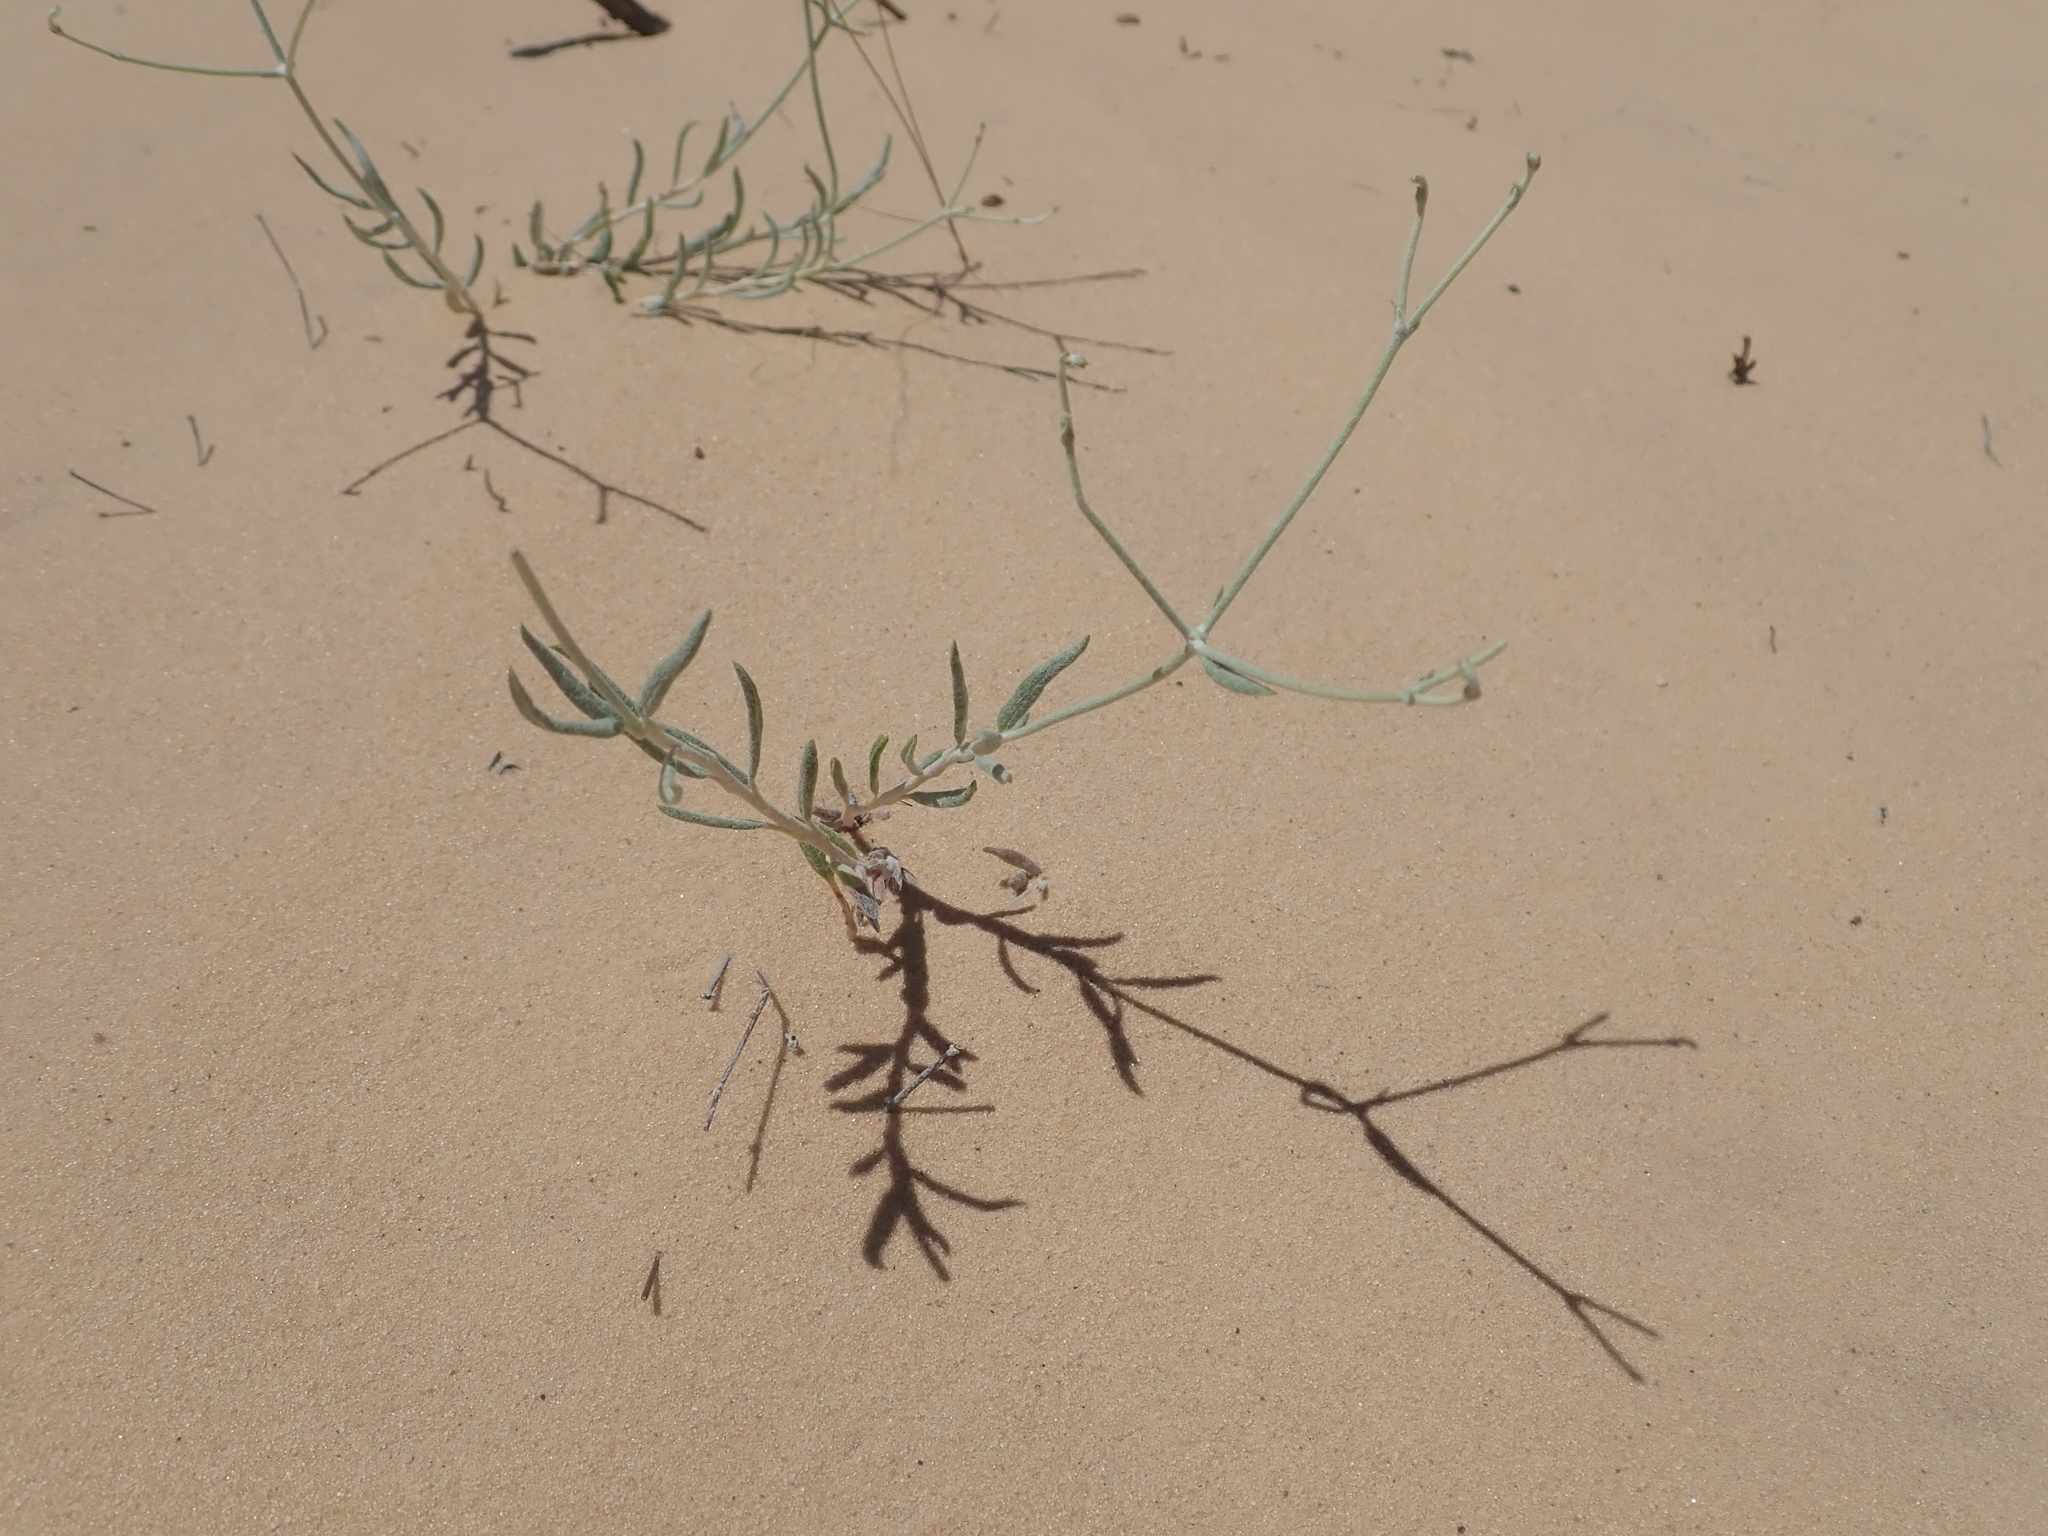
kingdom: Plantae
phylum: Tracheophyta
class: Magnoliopsida
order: Caryophyllales
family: Polygonaceae
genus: Eriogonum
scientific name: Eriogonum nummulare
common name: Kearney wild buckwheat
